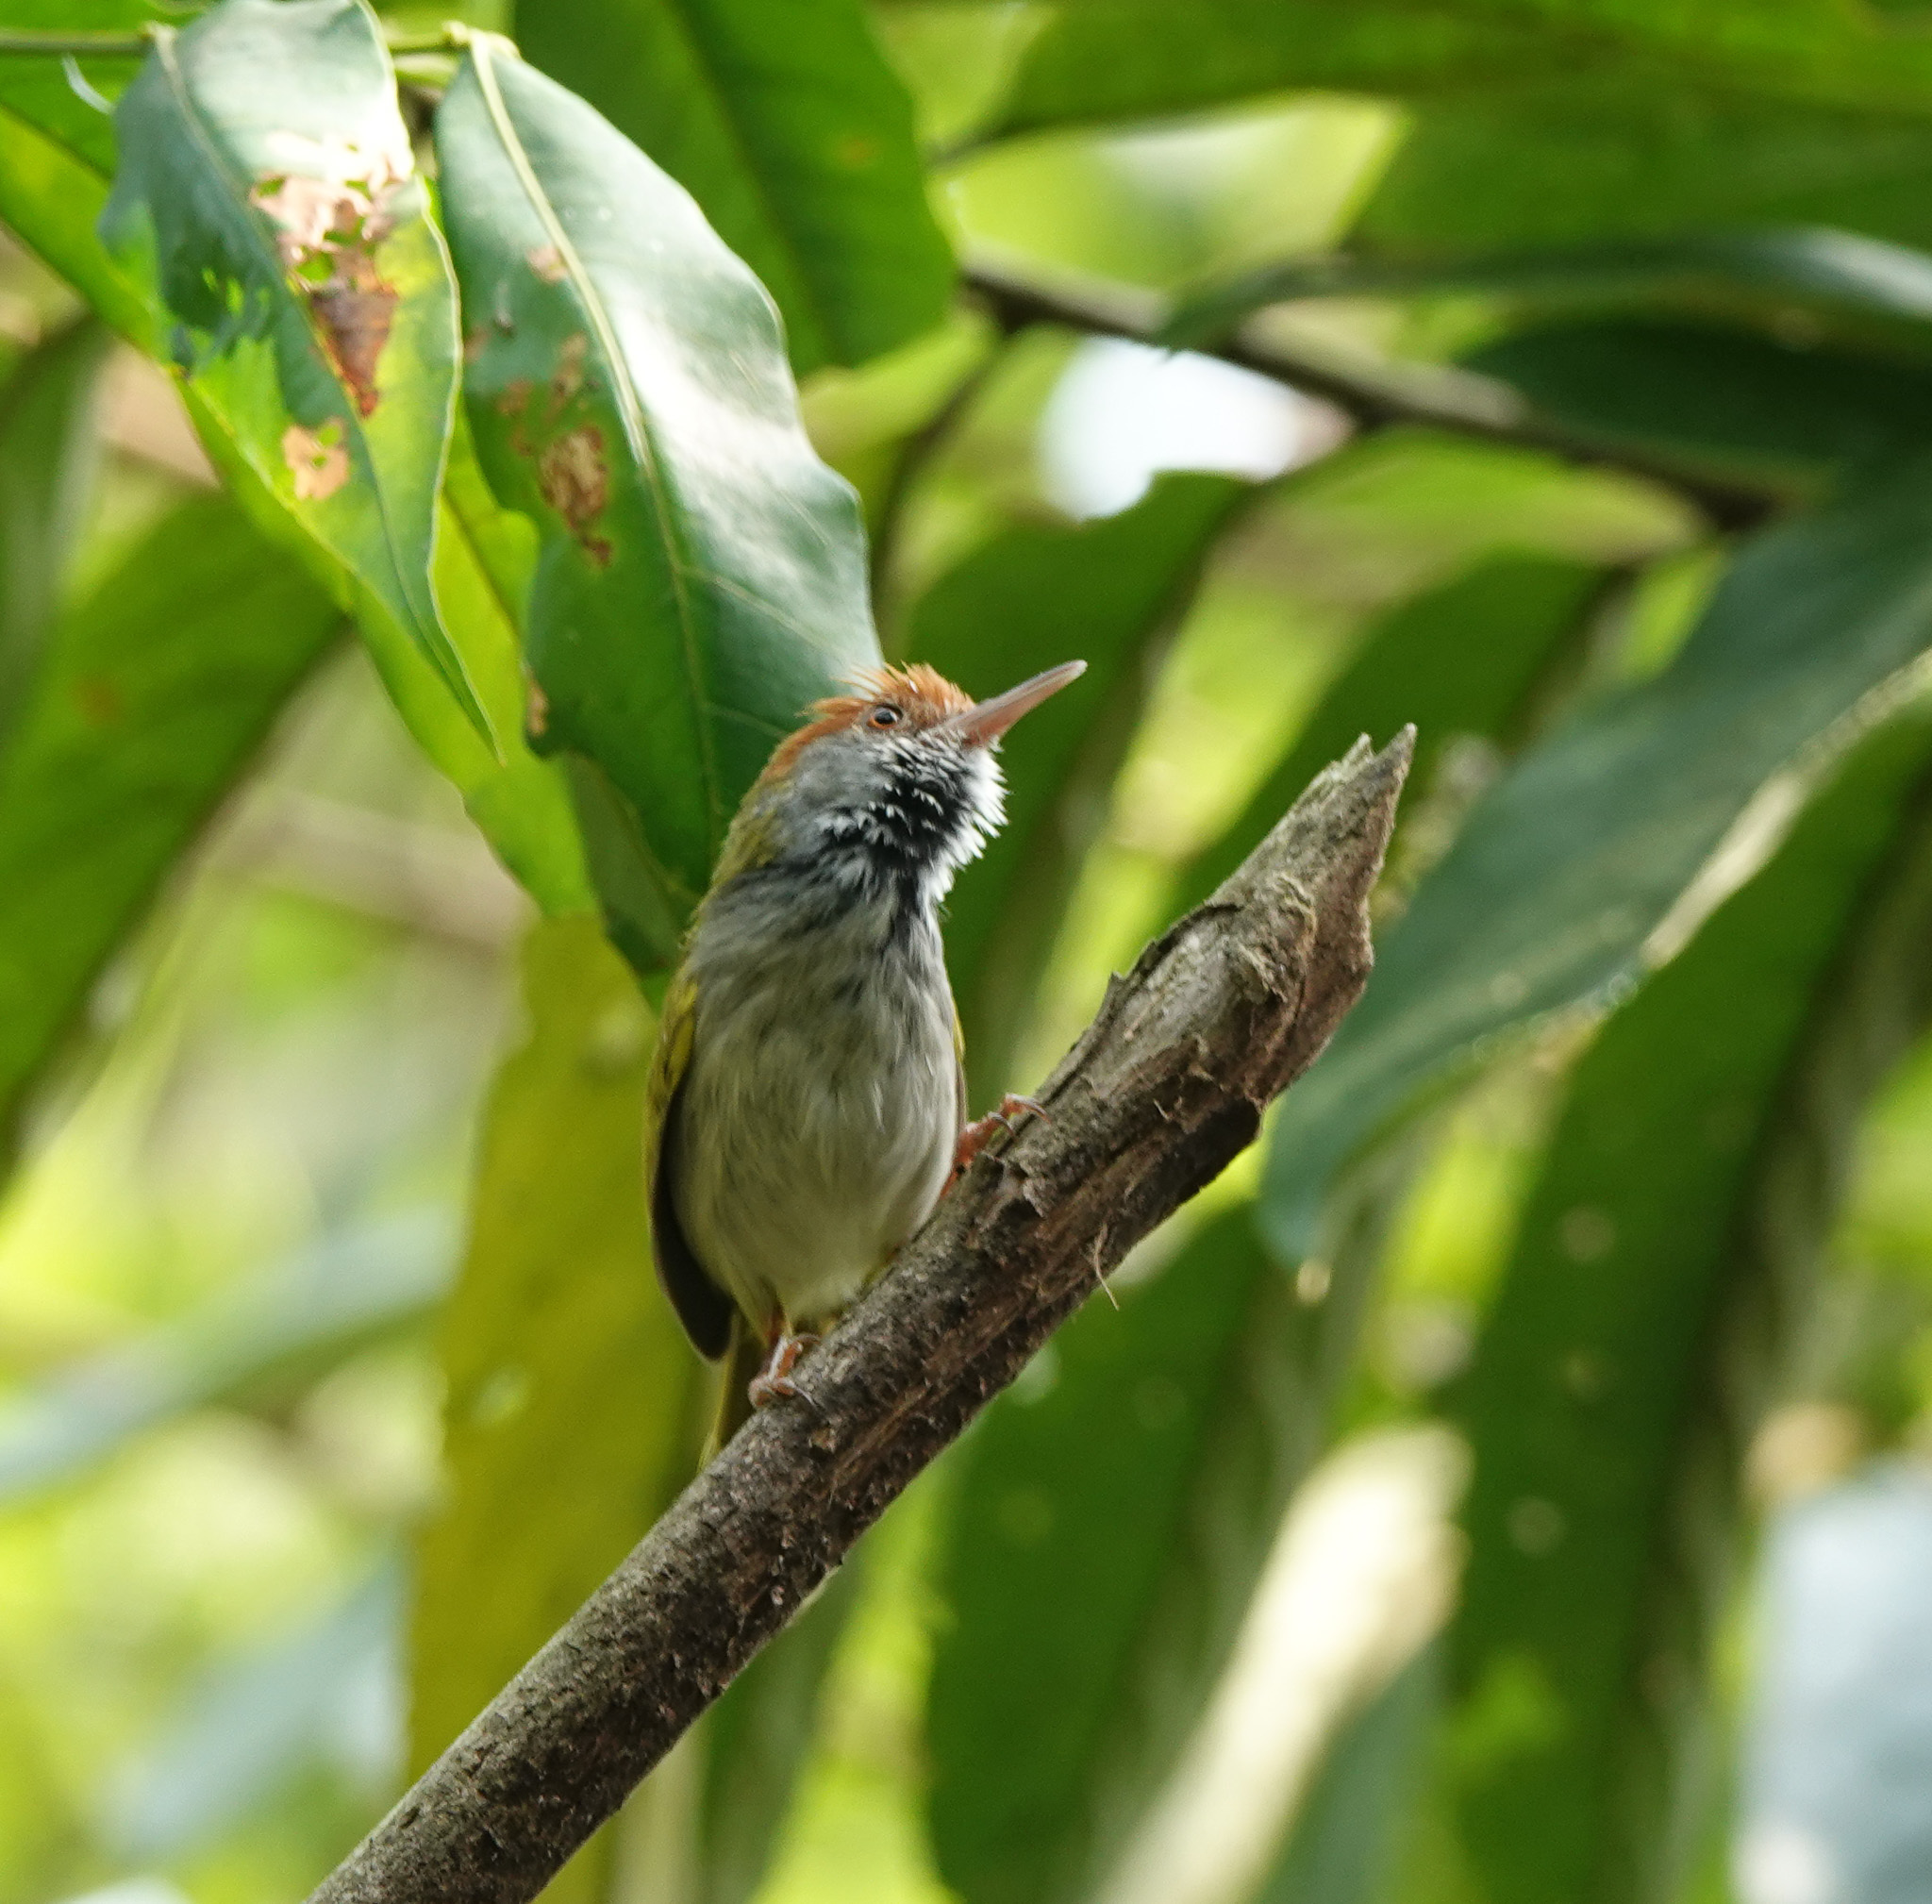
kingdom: Animalia
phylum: Chordata
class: Aves
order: Passeriformes
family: Cisticolidae
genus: Orthotomus
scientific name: Orthotomus atrogularis
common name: Dark-necked tailorbird
